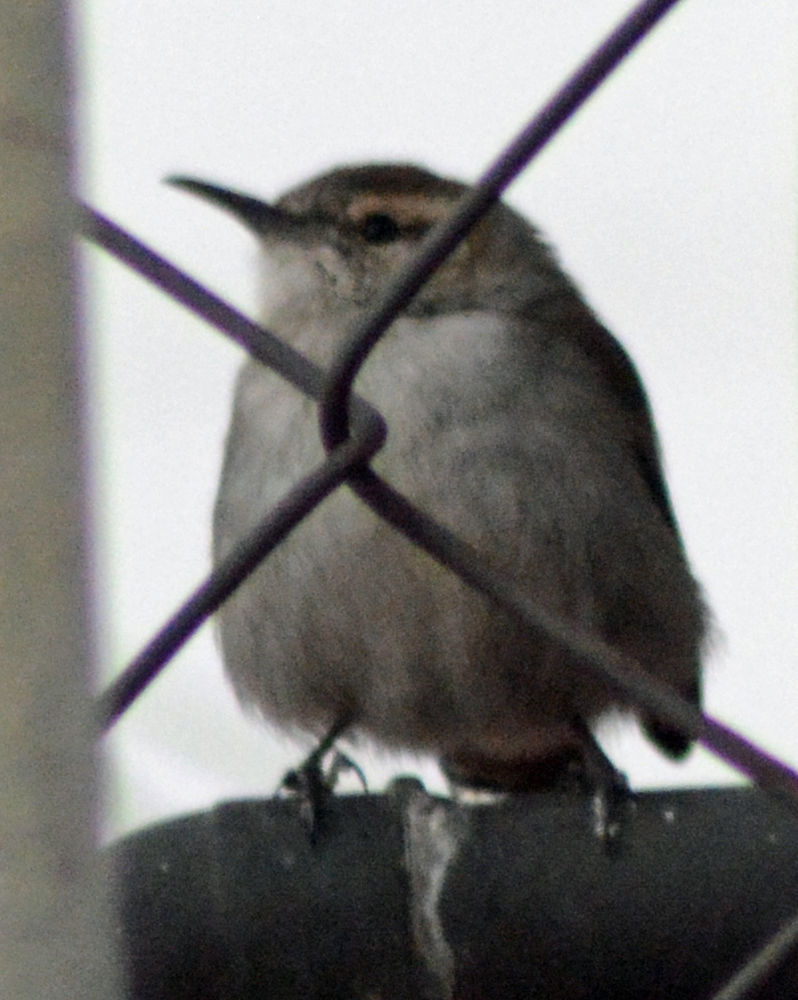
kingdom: Animalia
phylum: Chordata
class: Aves
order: Passeriformes
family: Troglodytidae
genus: Thryomanes
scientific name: Thryomanes bewickii
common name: Bewick's wren
